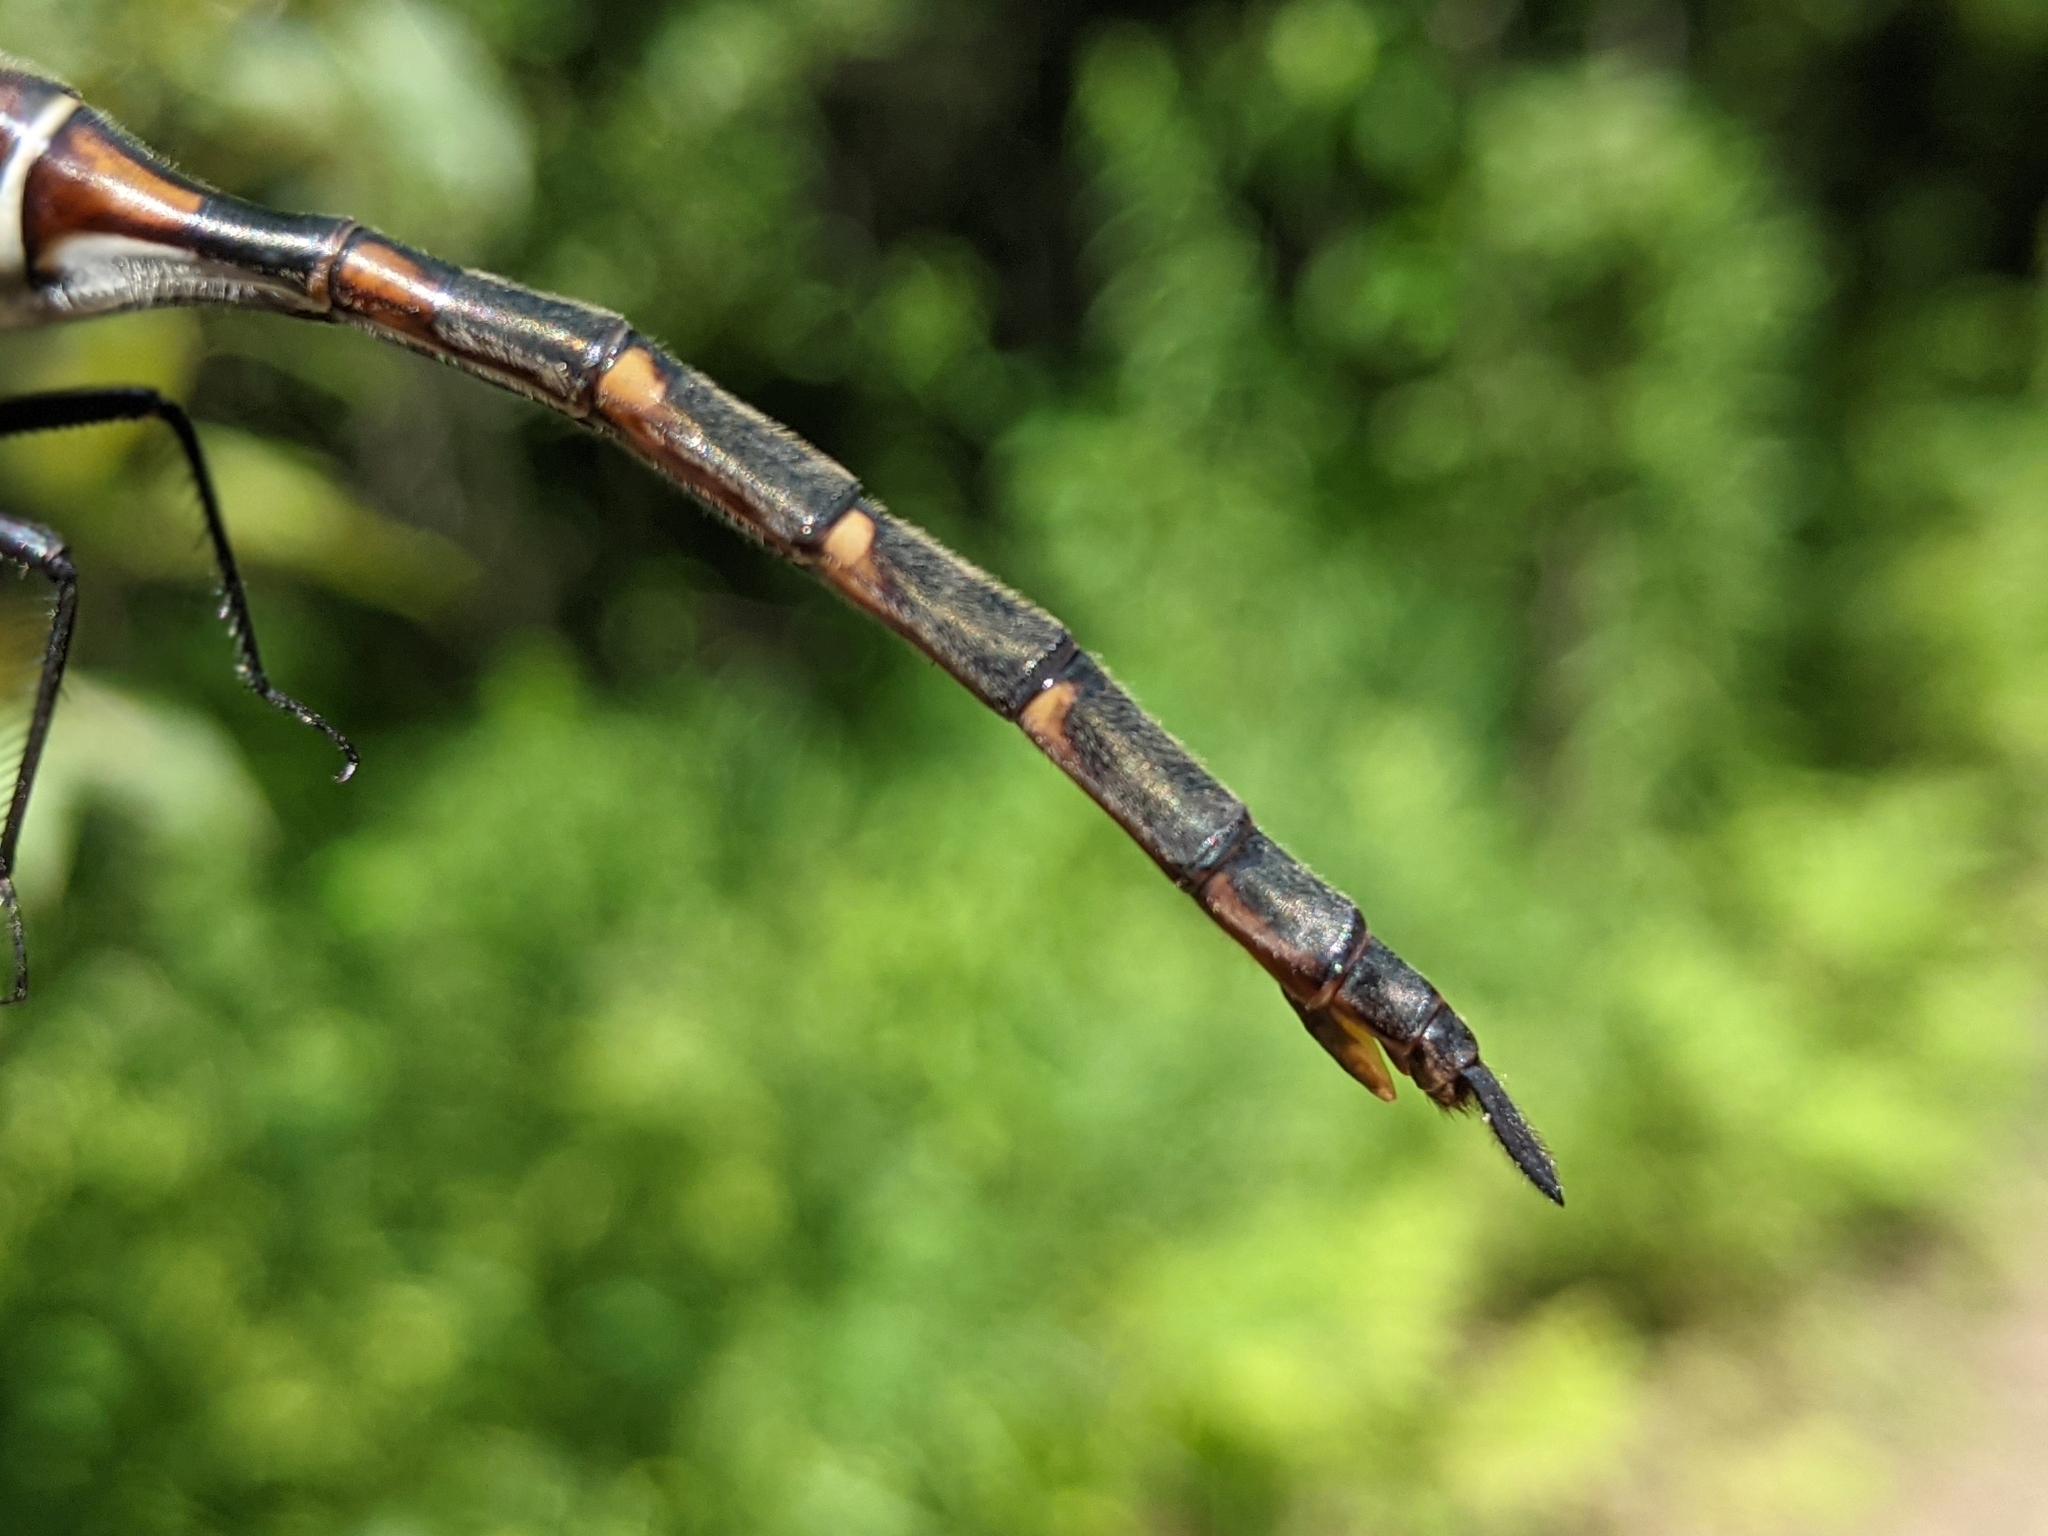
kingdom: Animalia
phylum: Arthropoda
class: Insecta
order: Odonata
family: Corduliidae
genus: Somatochlora
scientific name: Somatochlora incurvata
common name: Incurvate emerald
